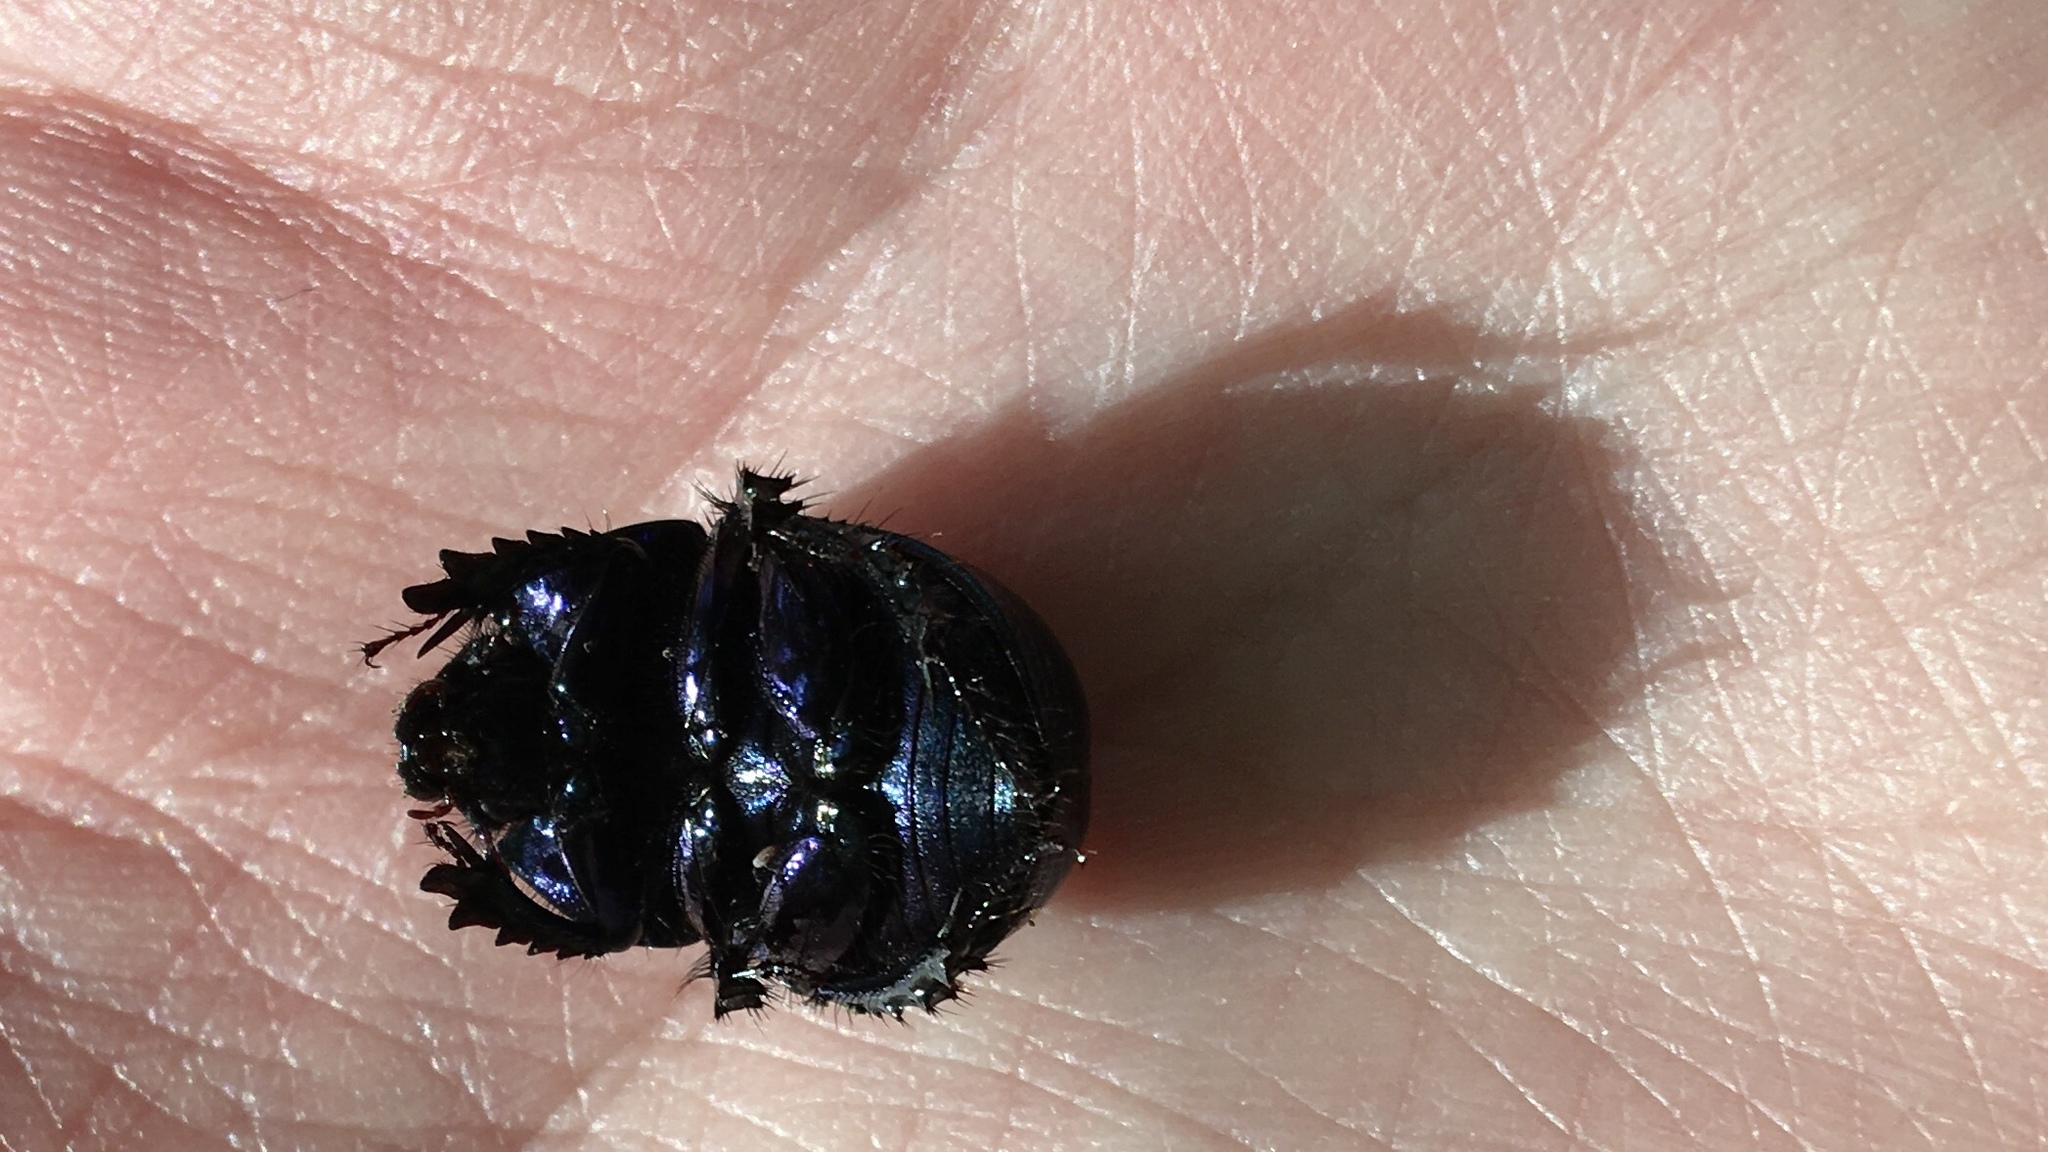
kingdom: Animalia
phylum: Arthropoda
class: Insecta
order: Coleoptera
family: Geotrupidae
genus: Anoplotrupes
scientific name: Anoplotrupes stercorosus
